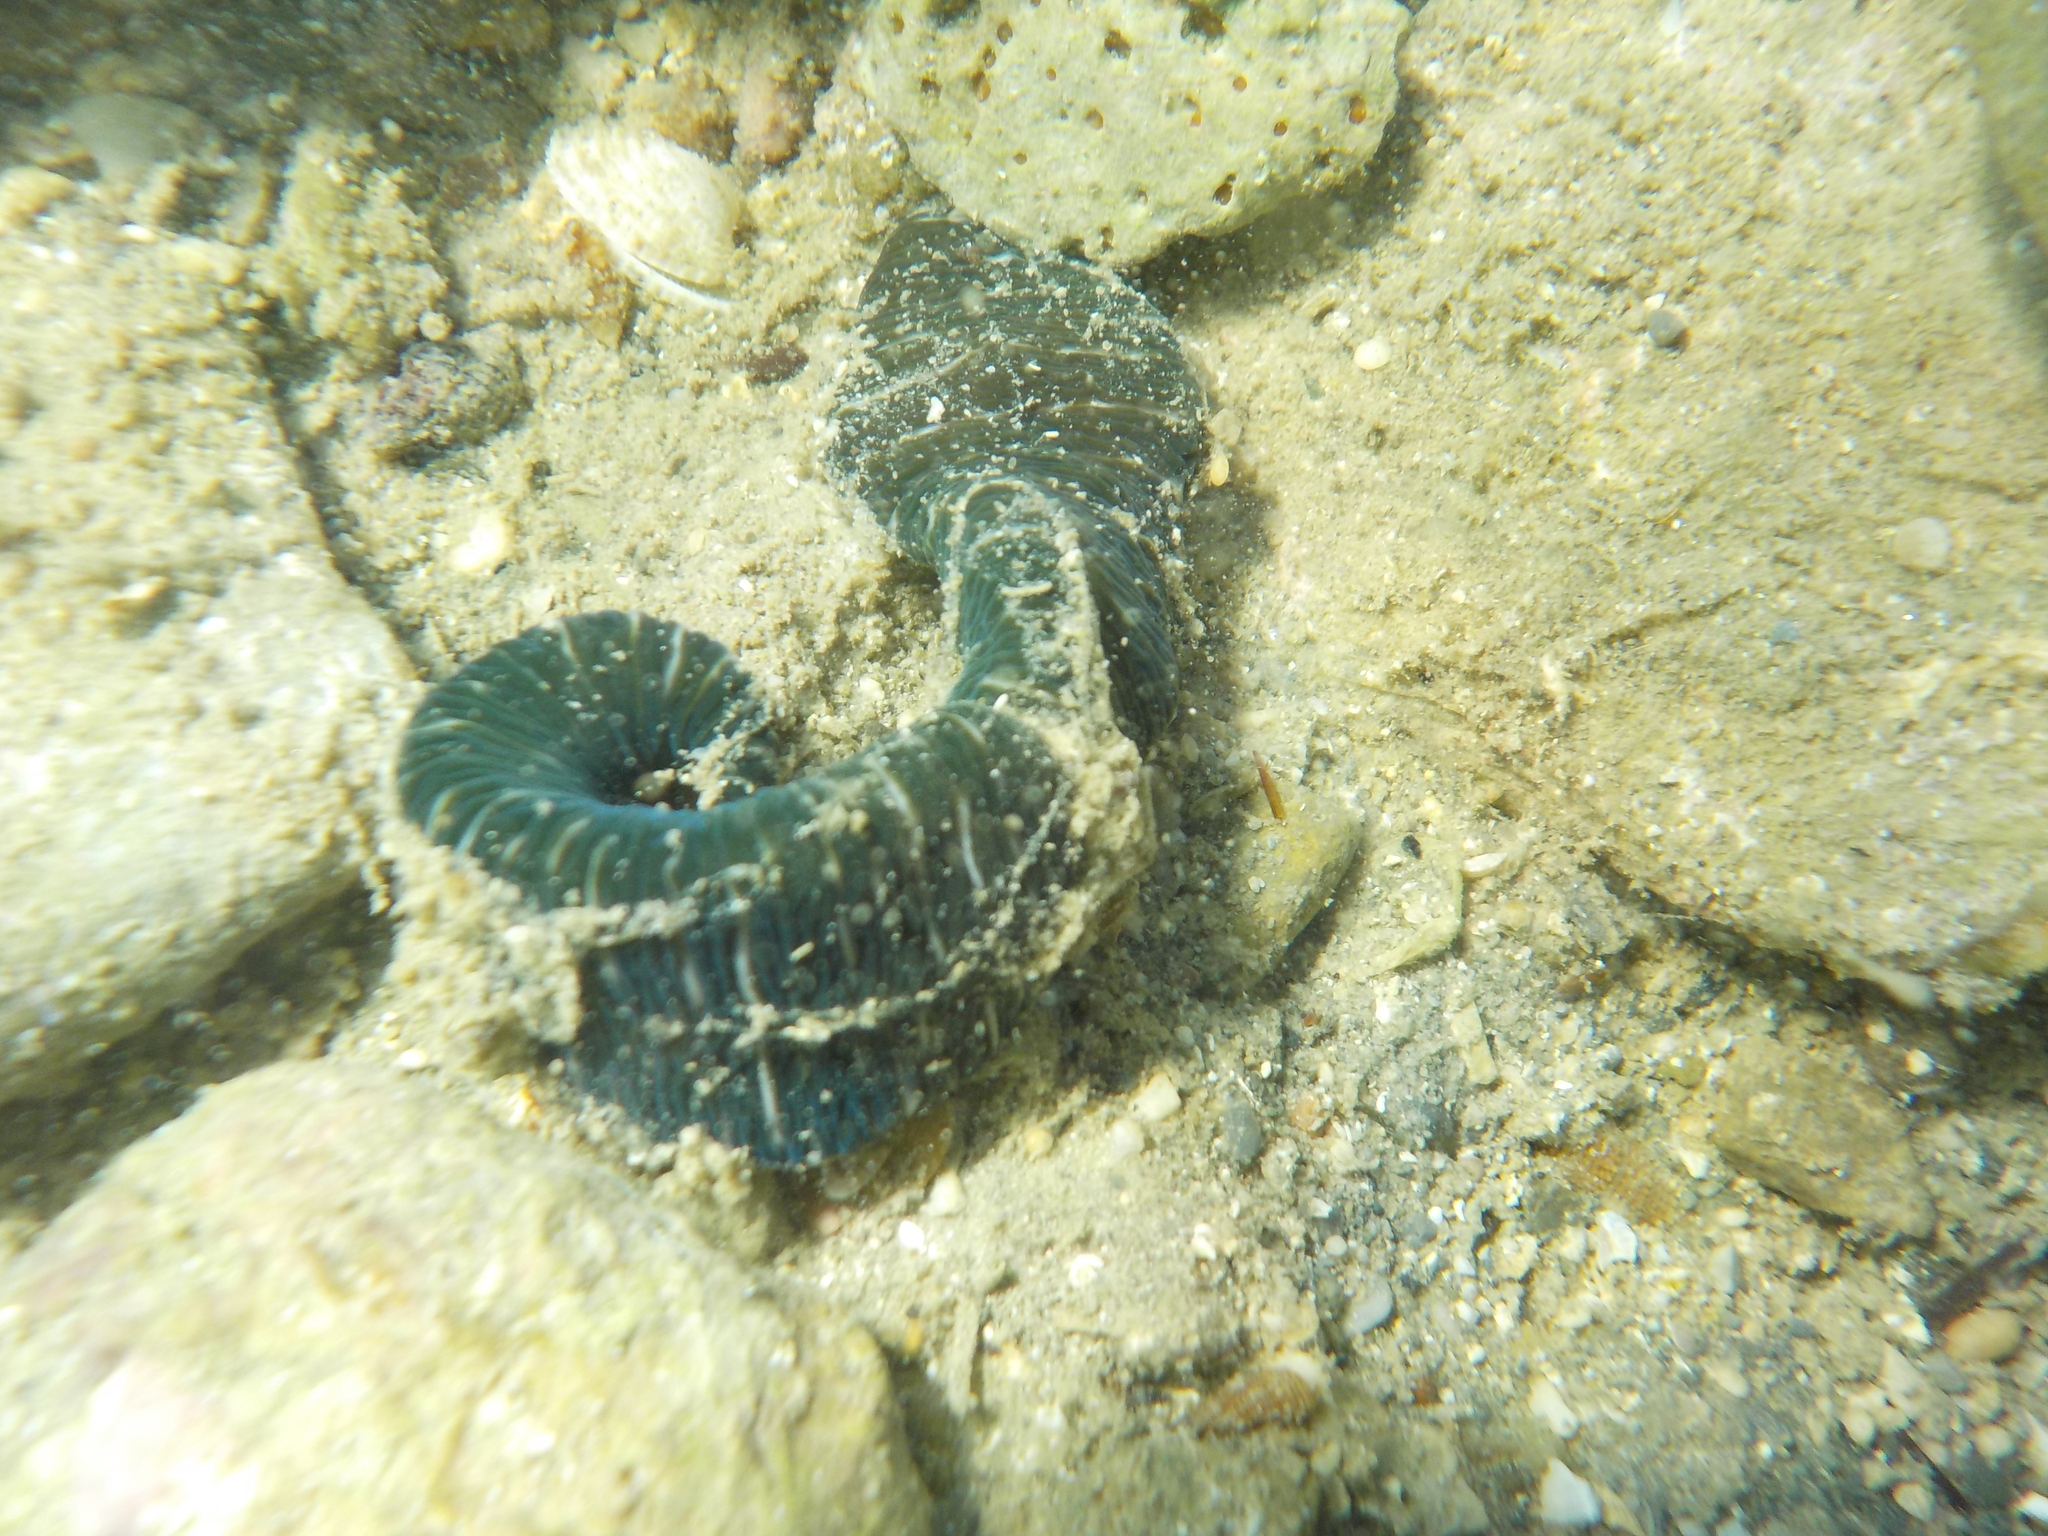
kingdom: Animalia
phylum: Nemertea
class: Pilidiophora
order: Heteronemertea
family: Lineidae
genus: Notospermus
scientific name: Notospermus geniculatus
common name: Banded bootlace
